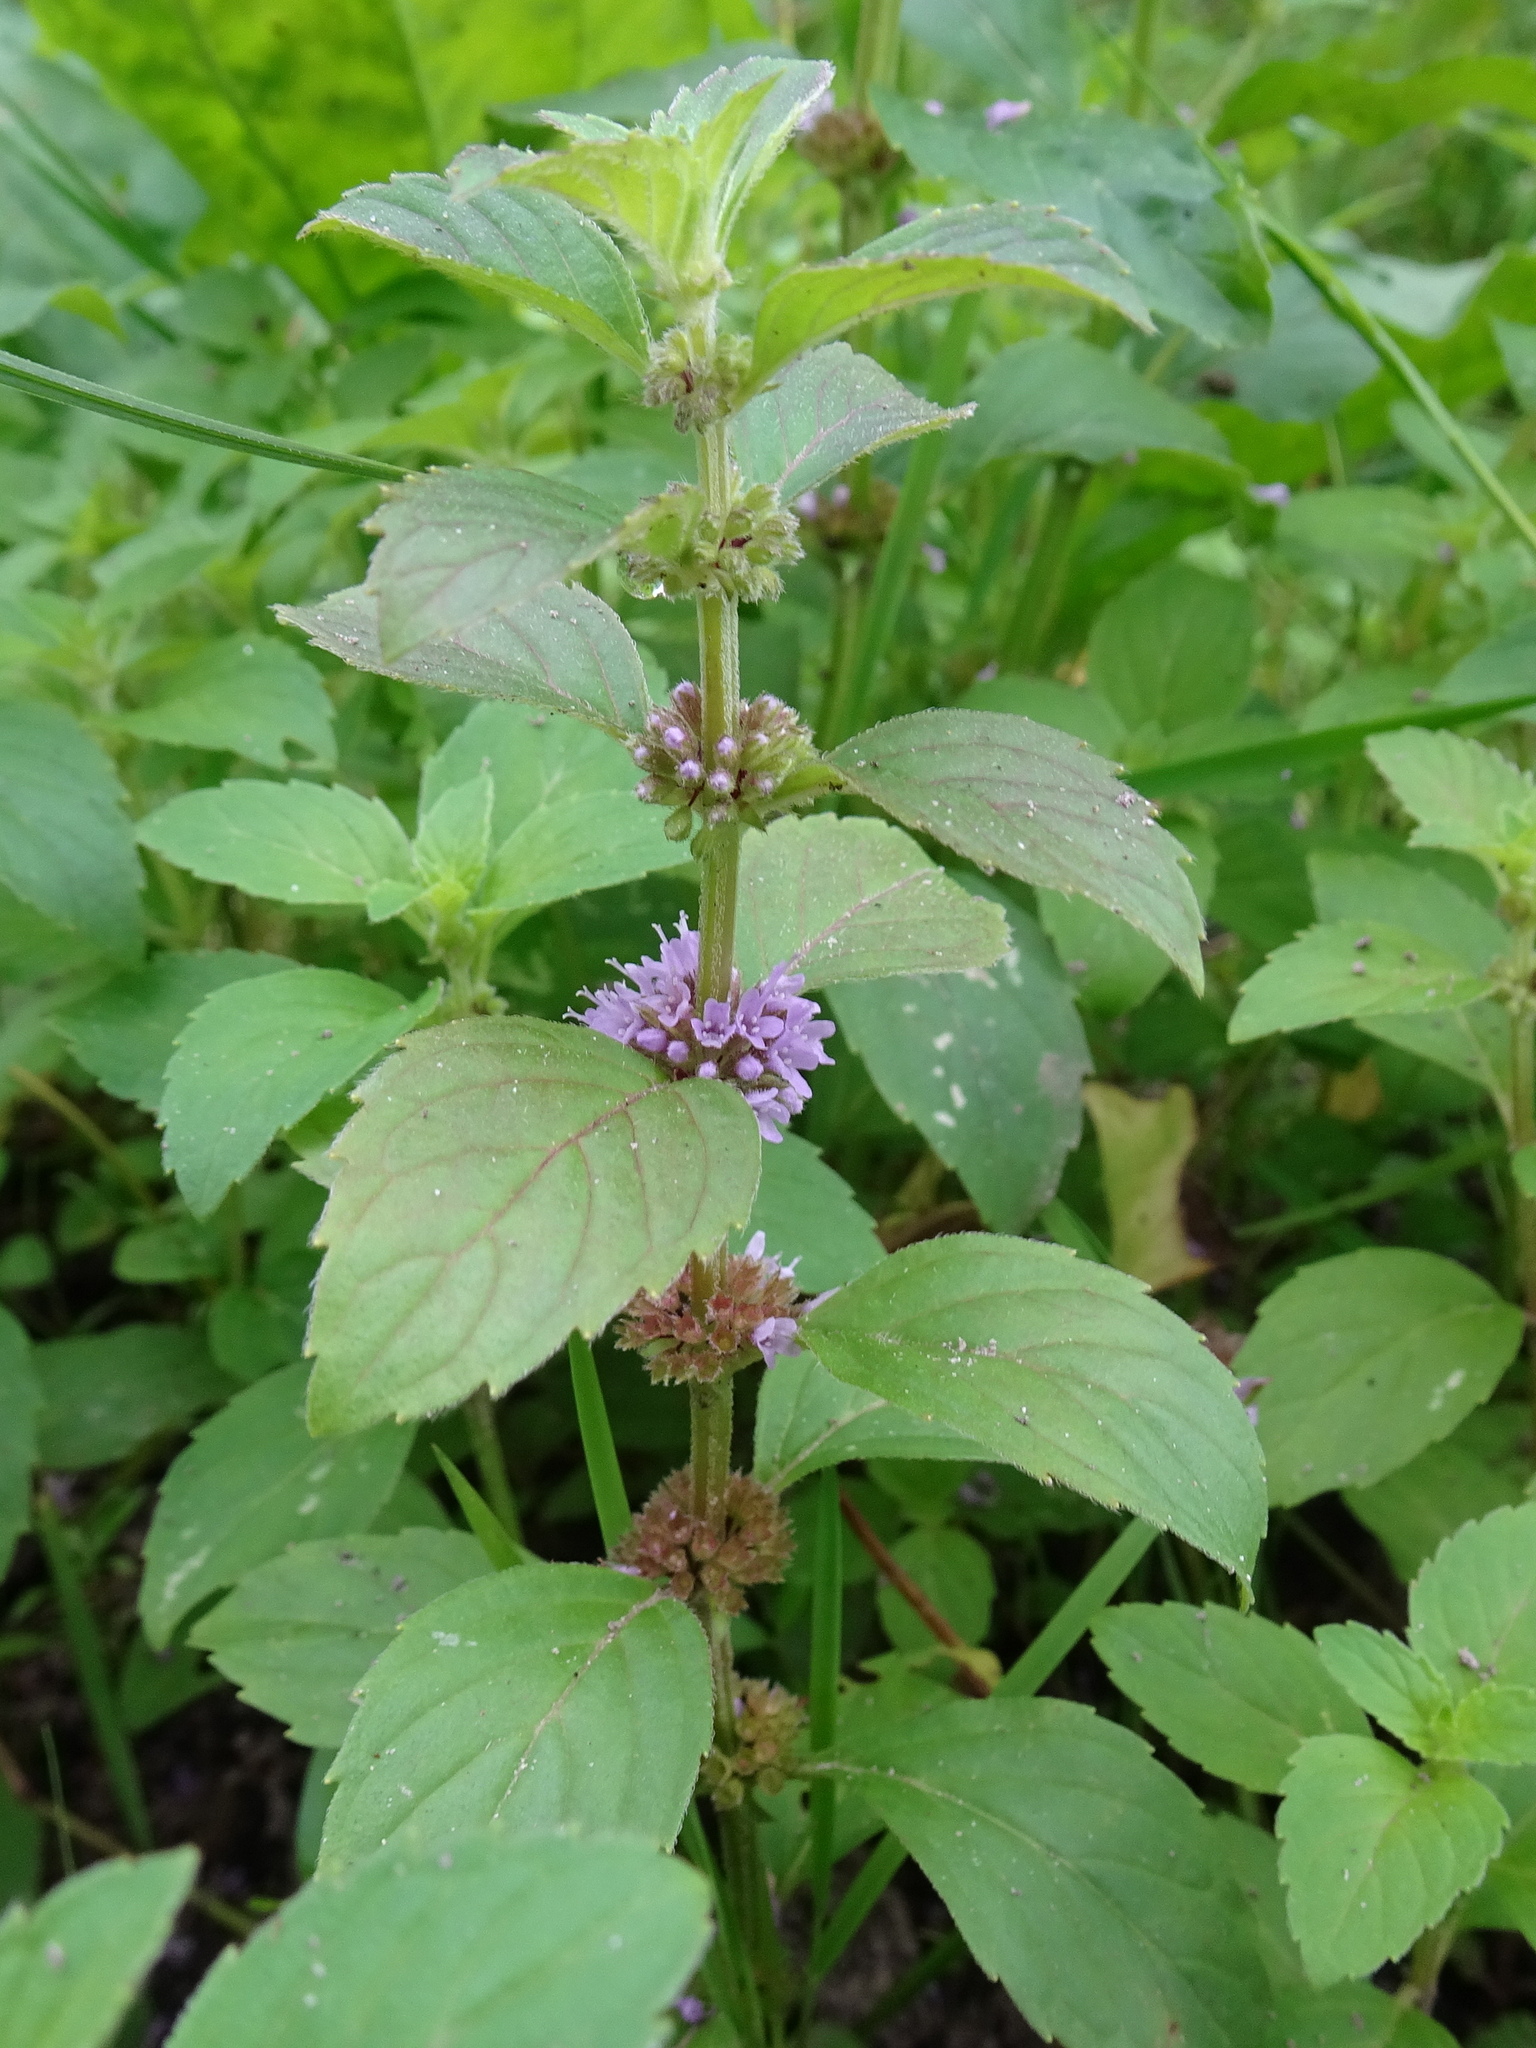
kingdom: Plantae
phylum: Tracheophyta
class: Magnoliopsida
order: Lamiales
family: Lamiaceae
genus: Mentha
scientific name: Mentha arvensis
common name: Corn mint
